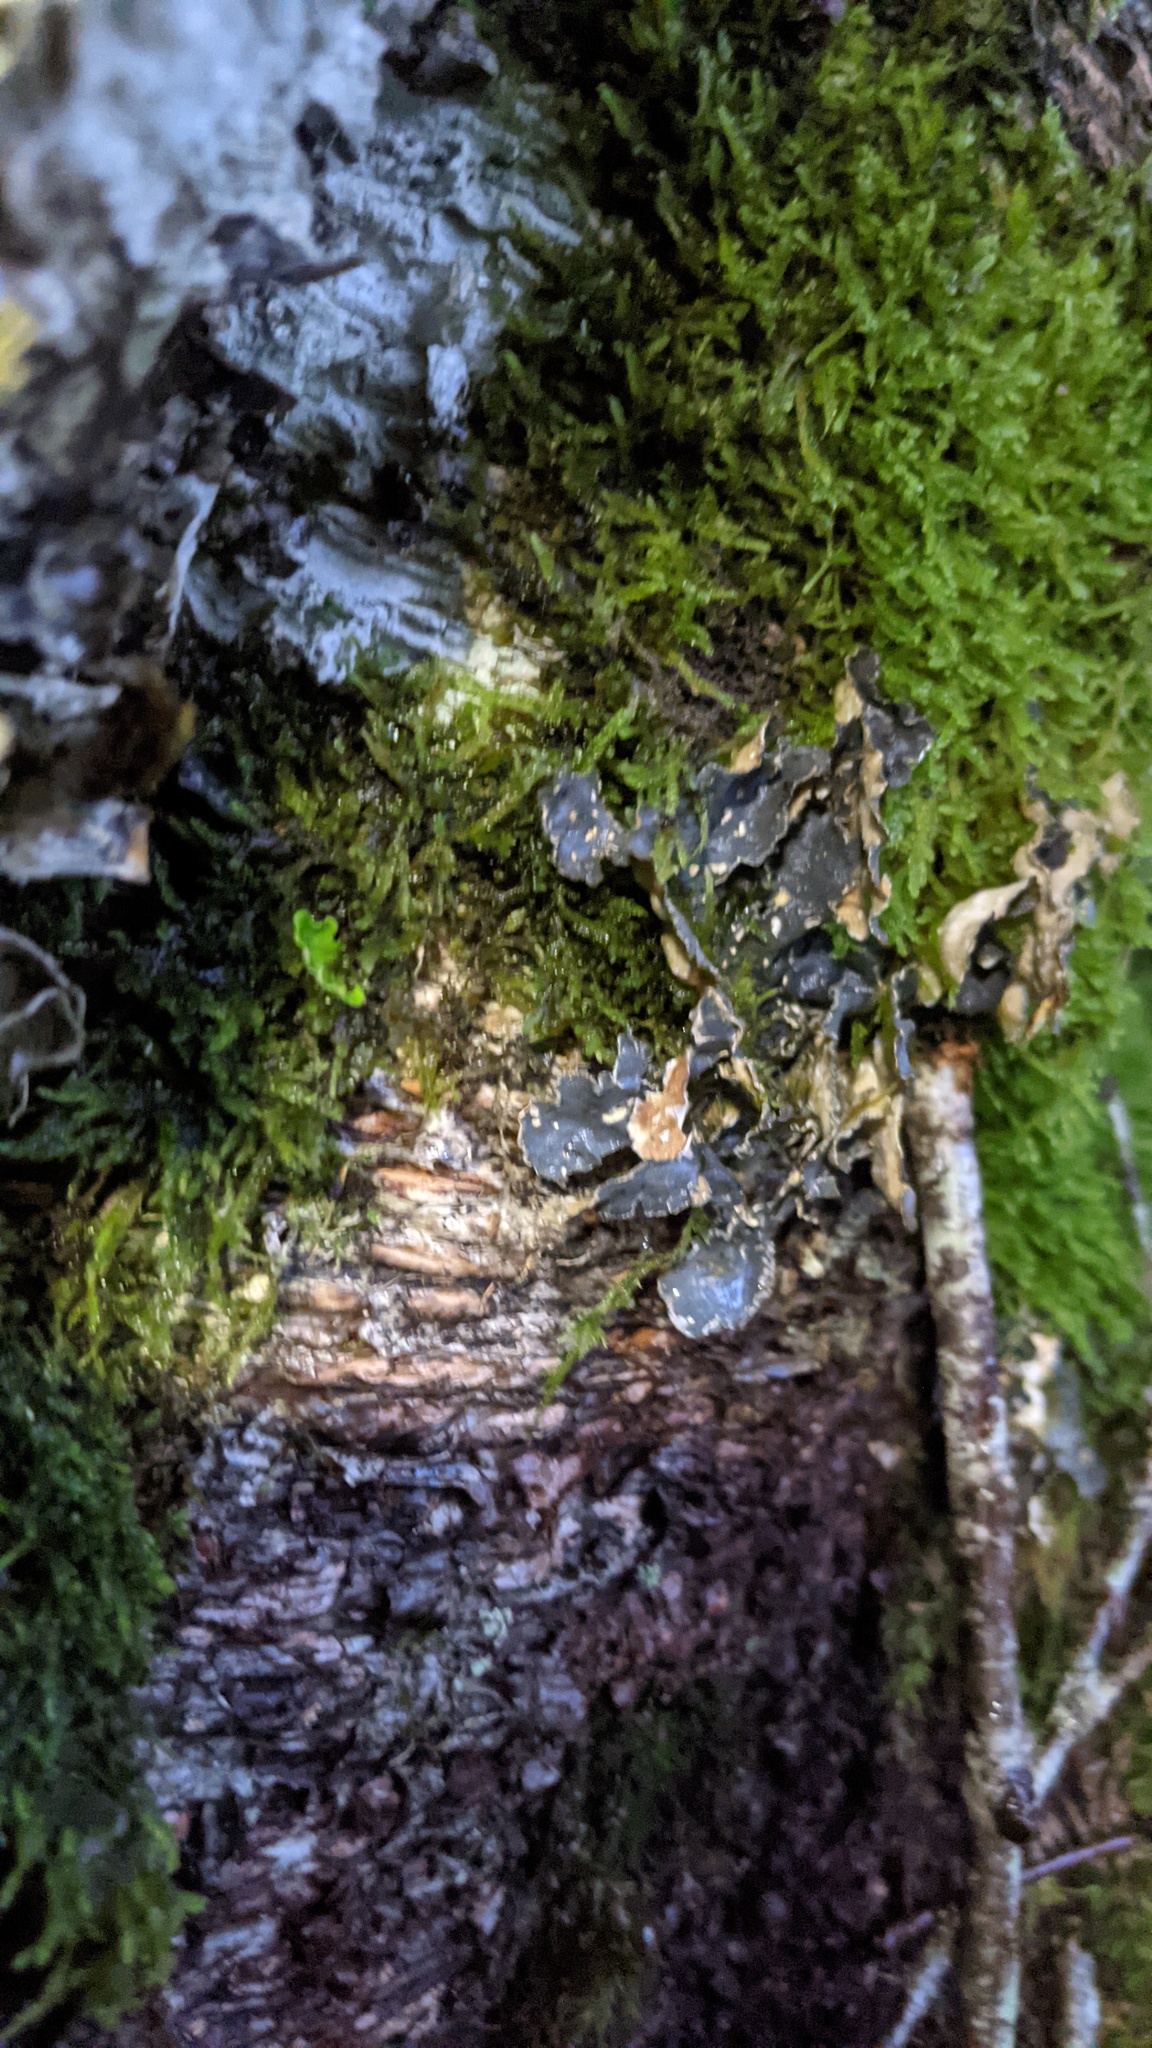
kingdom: Fungi
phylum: Ascomycota
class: Lecanoromycetes
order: Peltigerales
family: Lobariaceae
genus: Lobarina
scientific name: Lobarina scrobiculata
